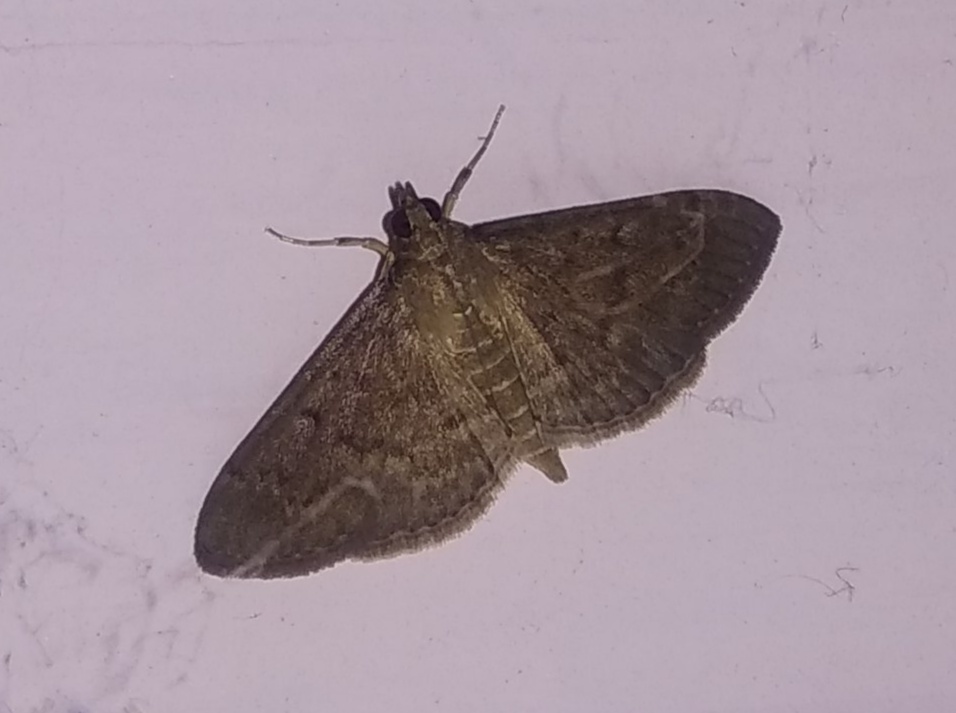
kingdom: Animalia
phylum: Arthropoda
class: Insecta
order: Lepidoptera
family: Crambidae
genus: Herpetogramma
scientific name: Herpetogramma licarsisalis
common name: Grass webworm
